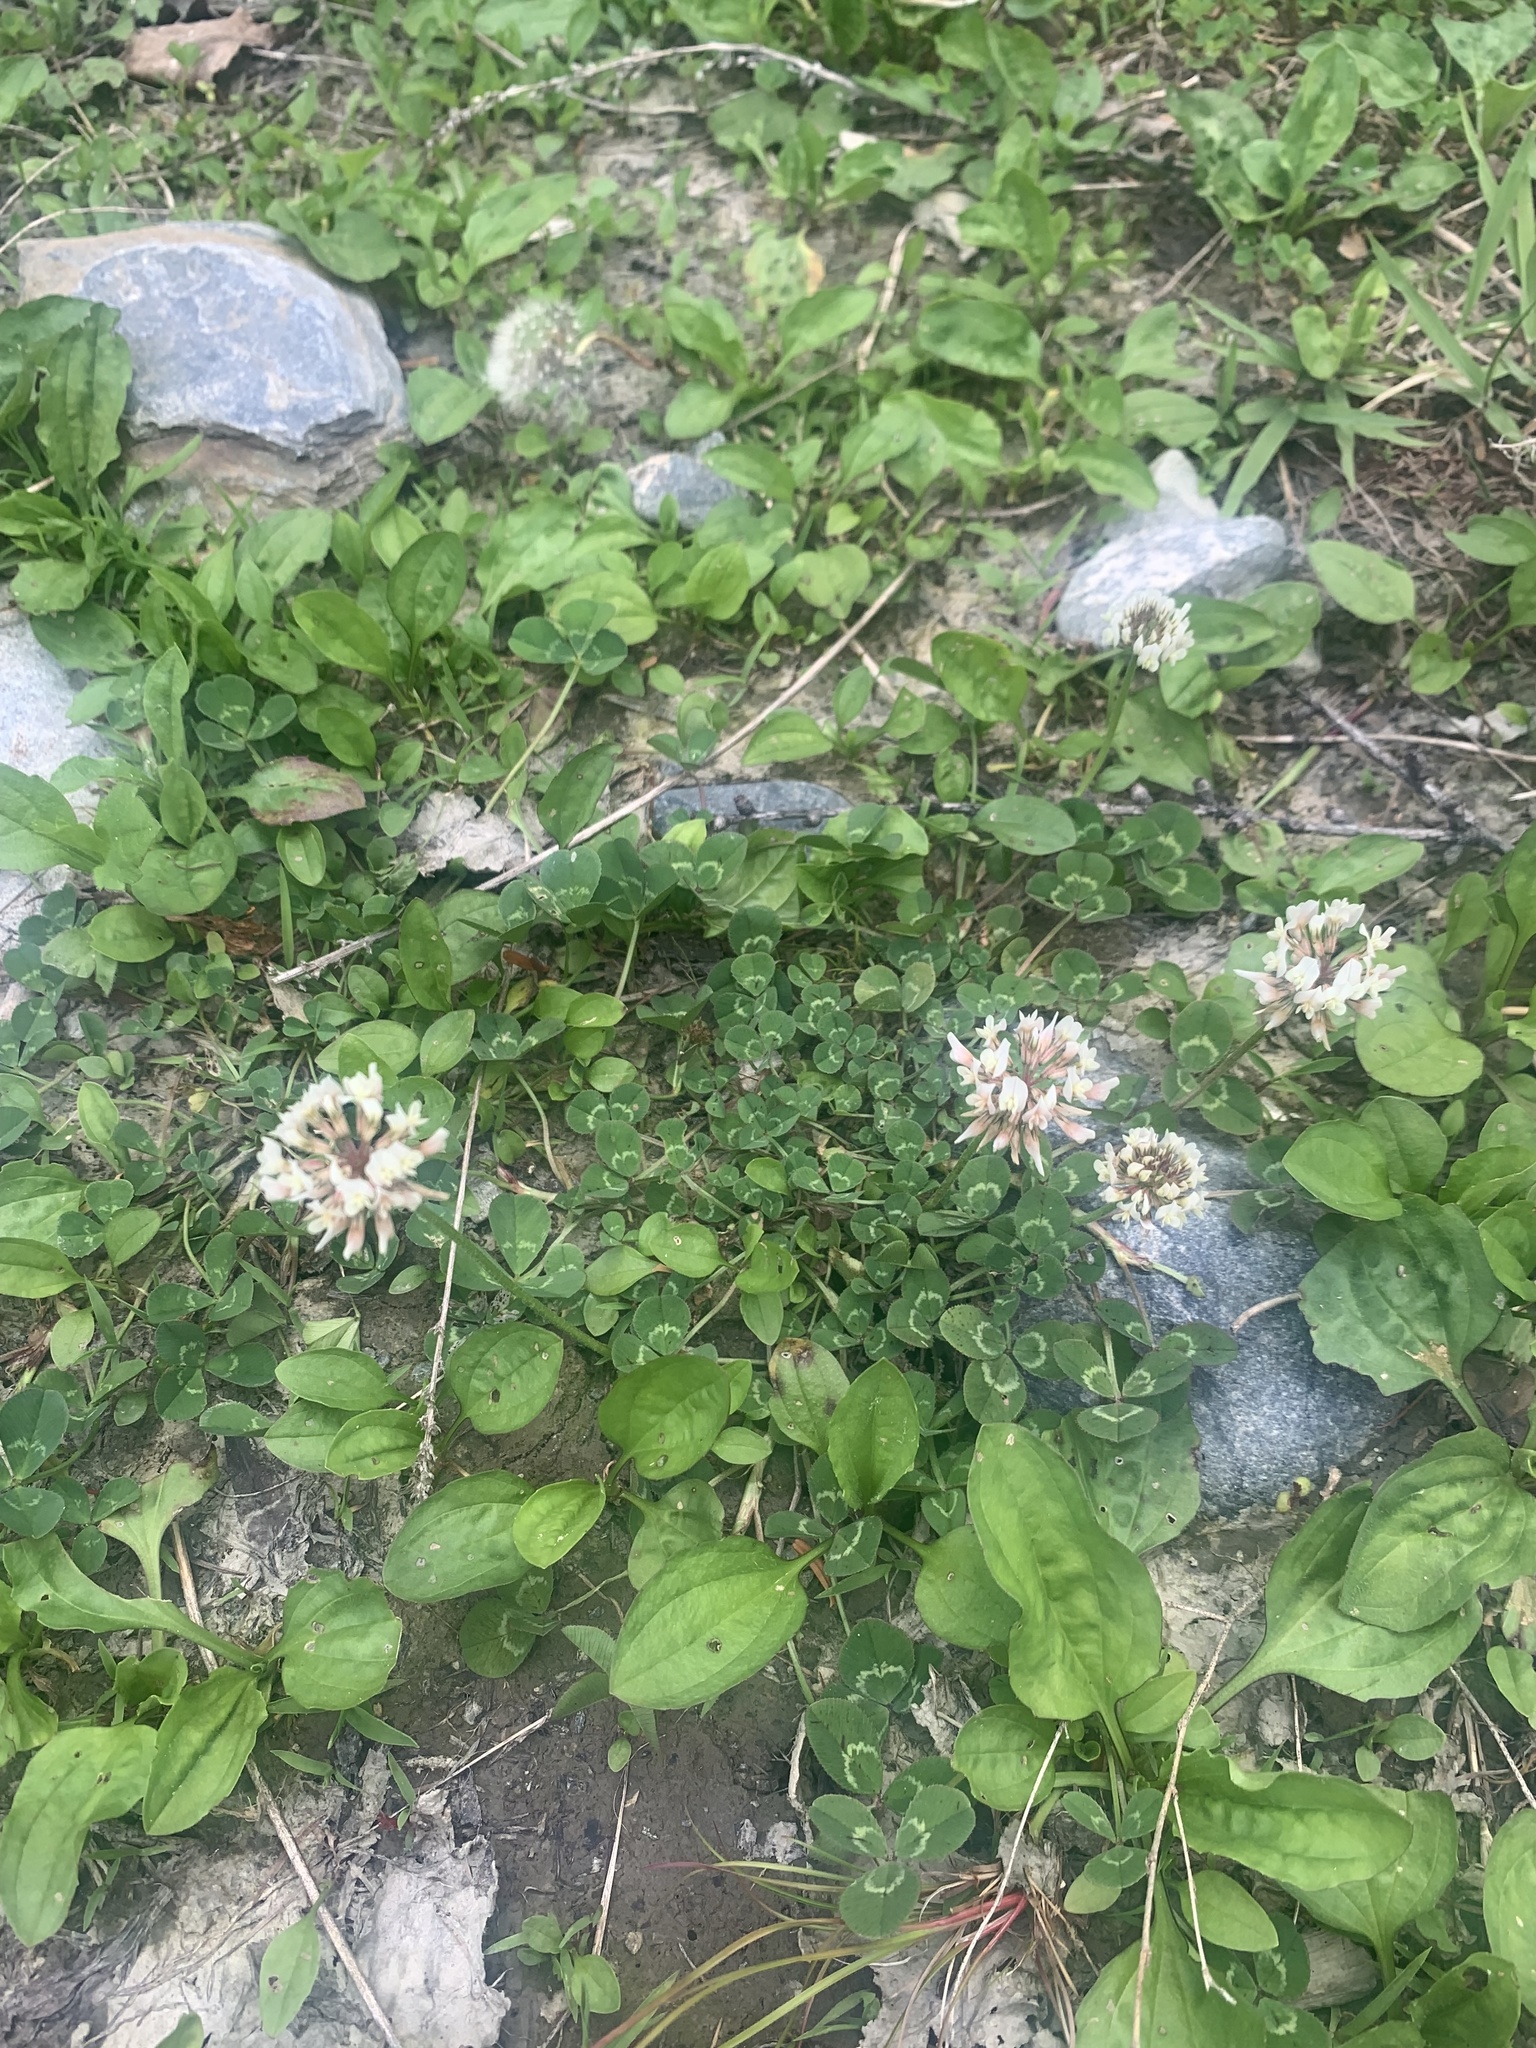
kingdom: Plantae
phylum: Tracheophyta
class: Magnoliopsida
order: Fabales
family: Fabaceae
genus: Trifolium
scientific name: Trifolium repens
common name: White clover
